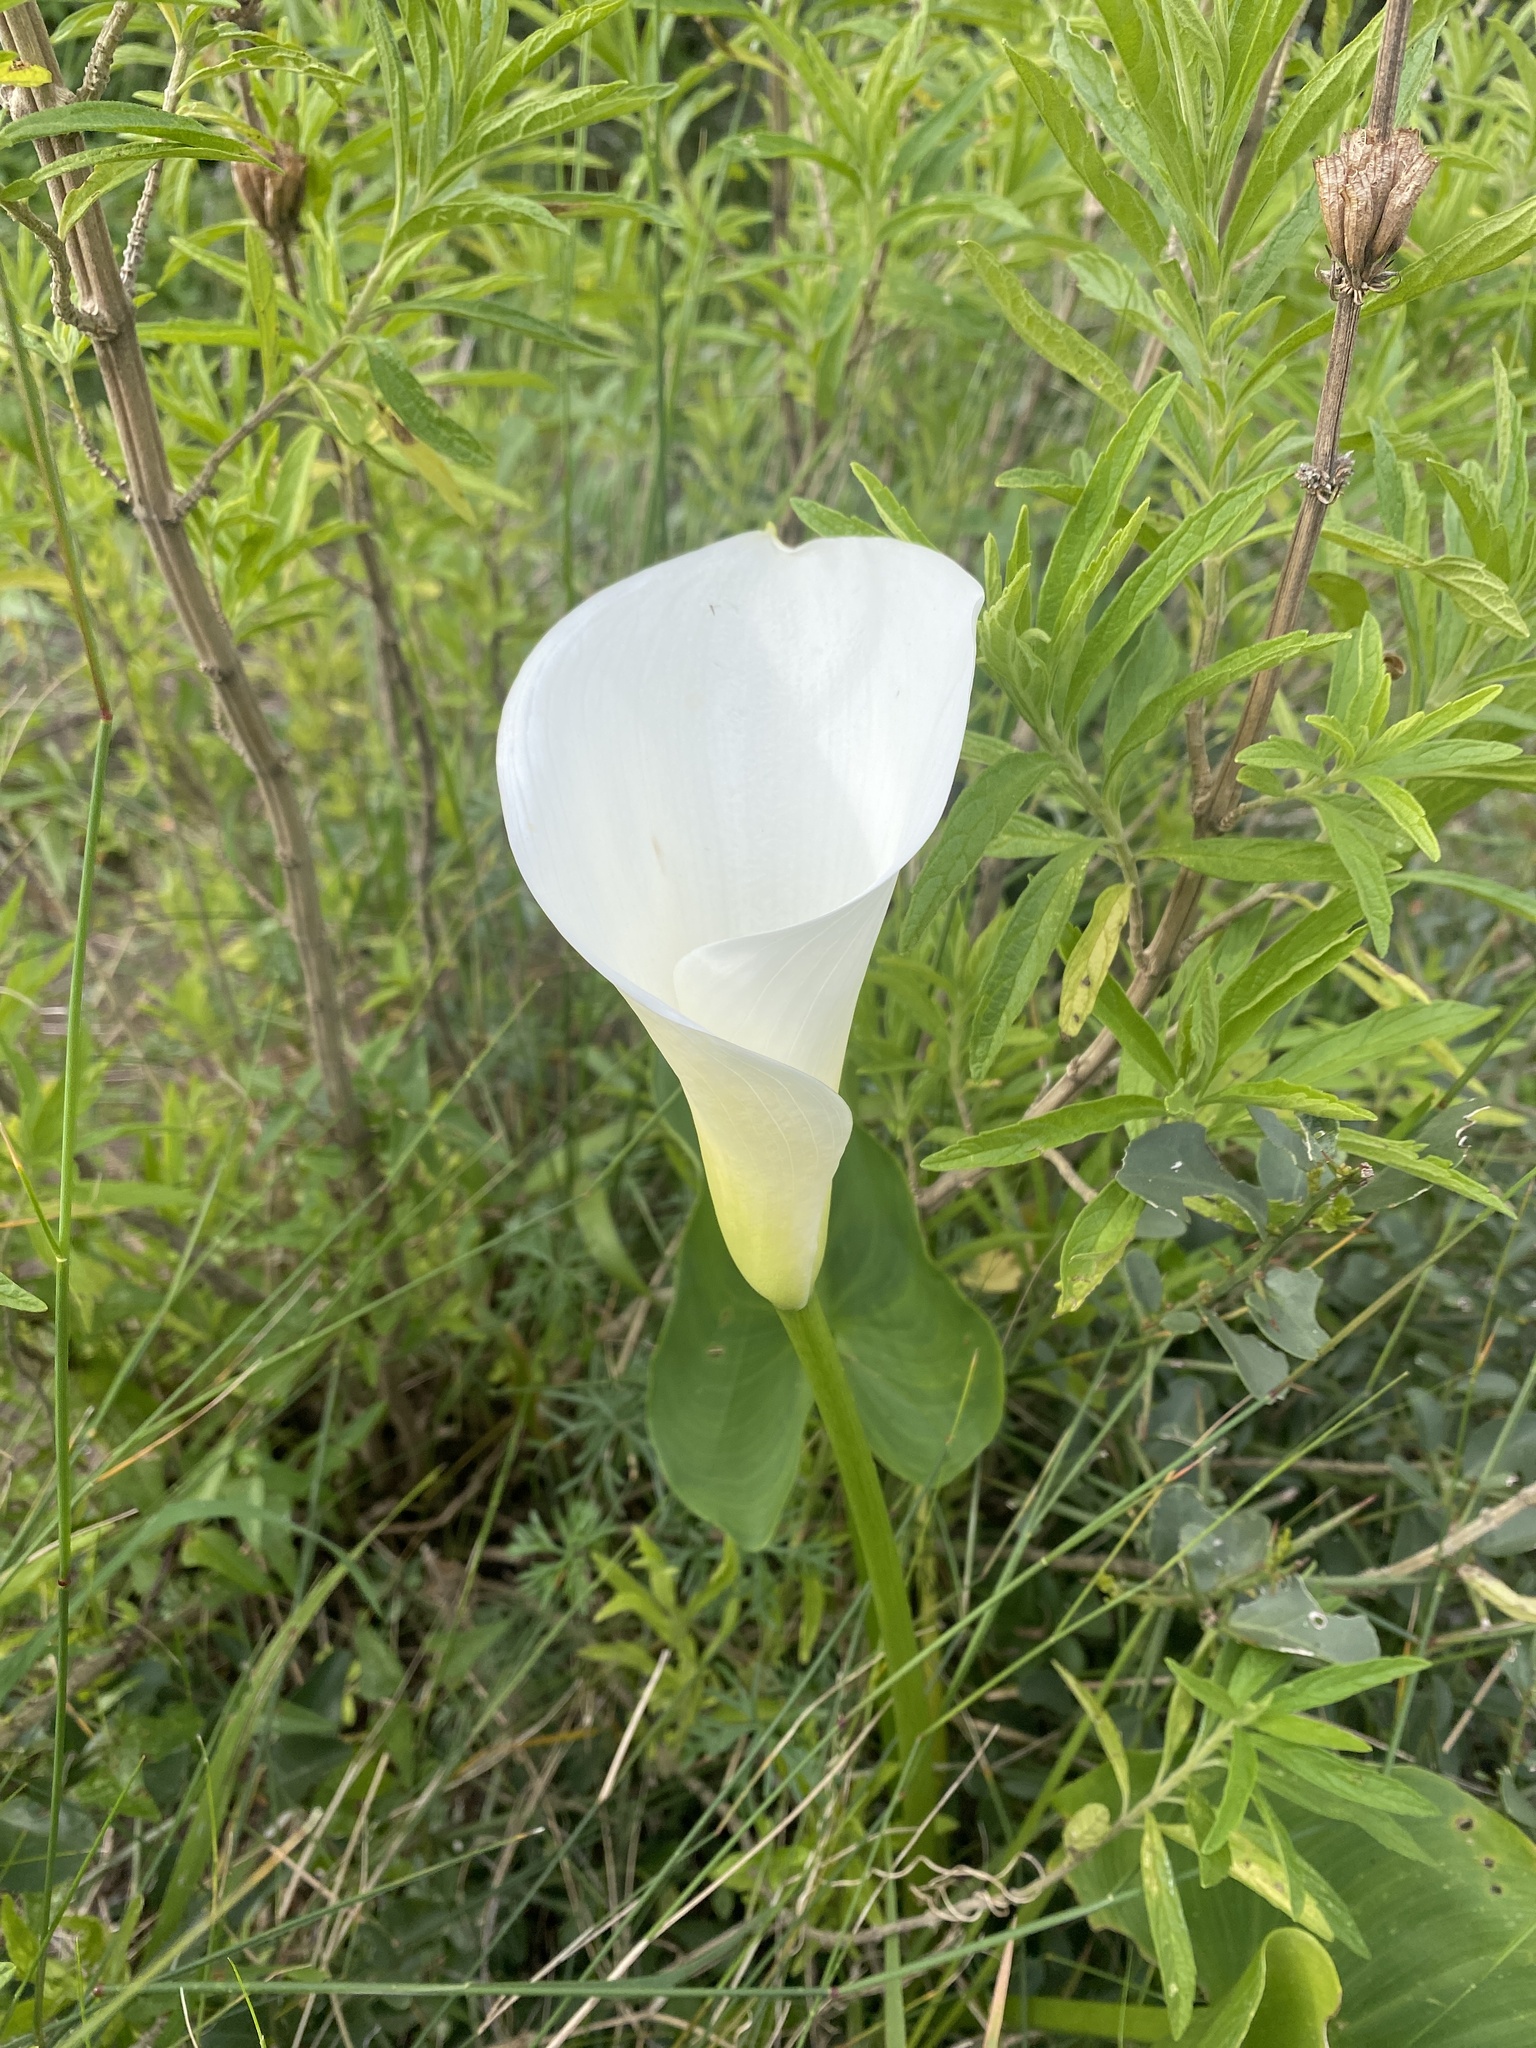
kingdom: Plantae
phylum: Tracheophyta
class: Liliopsida
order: Alismatales
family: Araceae
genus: Zantedeschia
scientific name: Zantedeschia aethiopica
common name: Altar-lily
